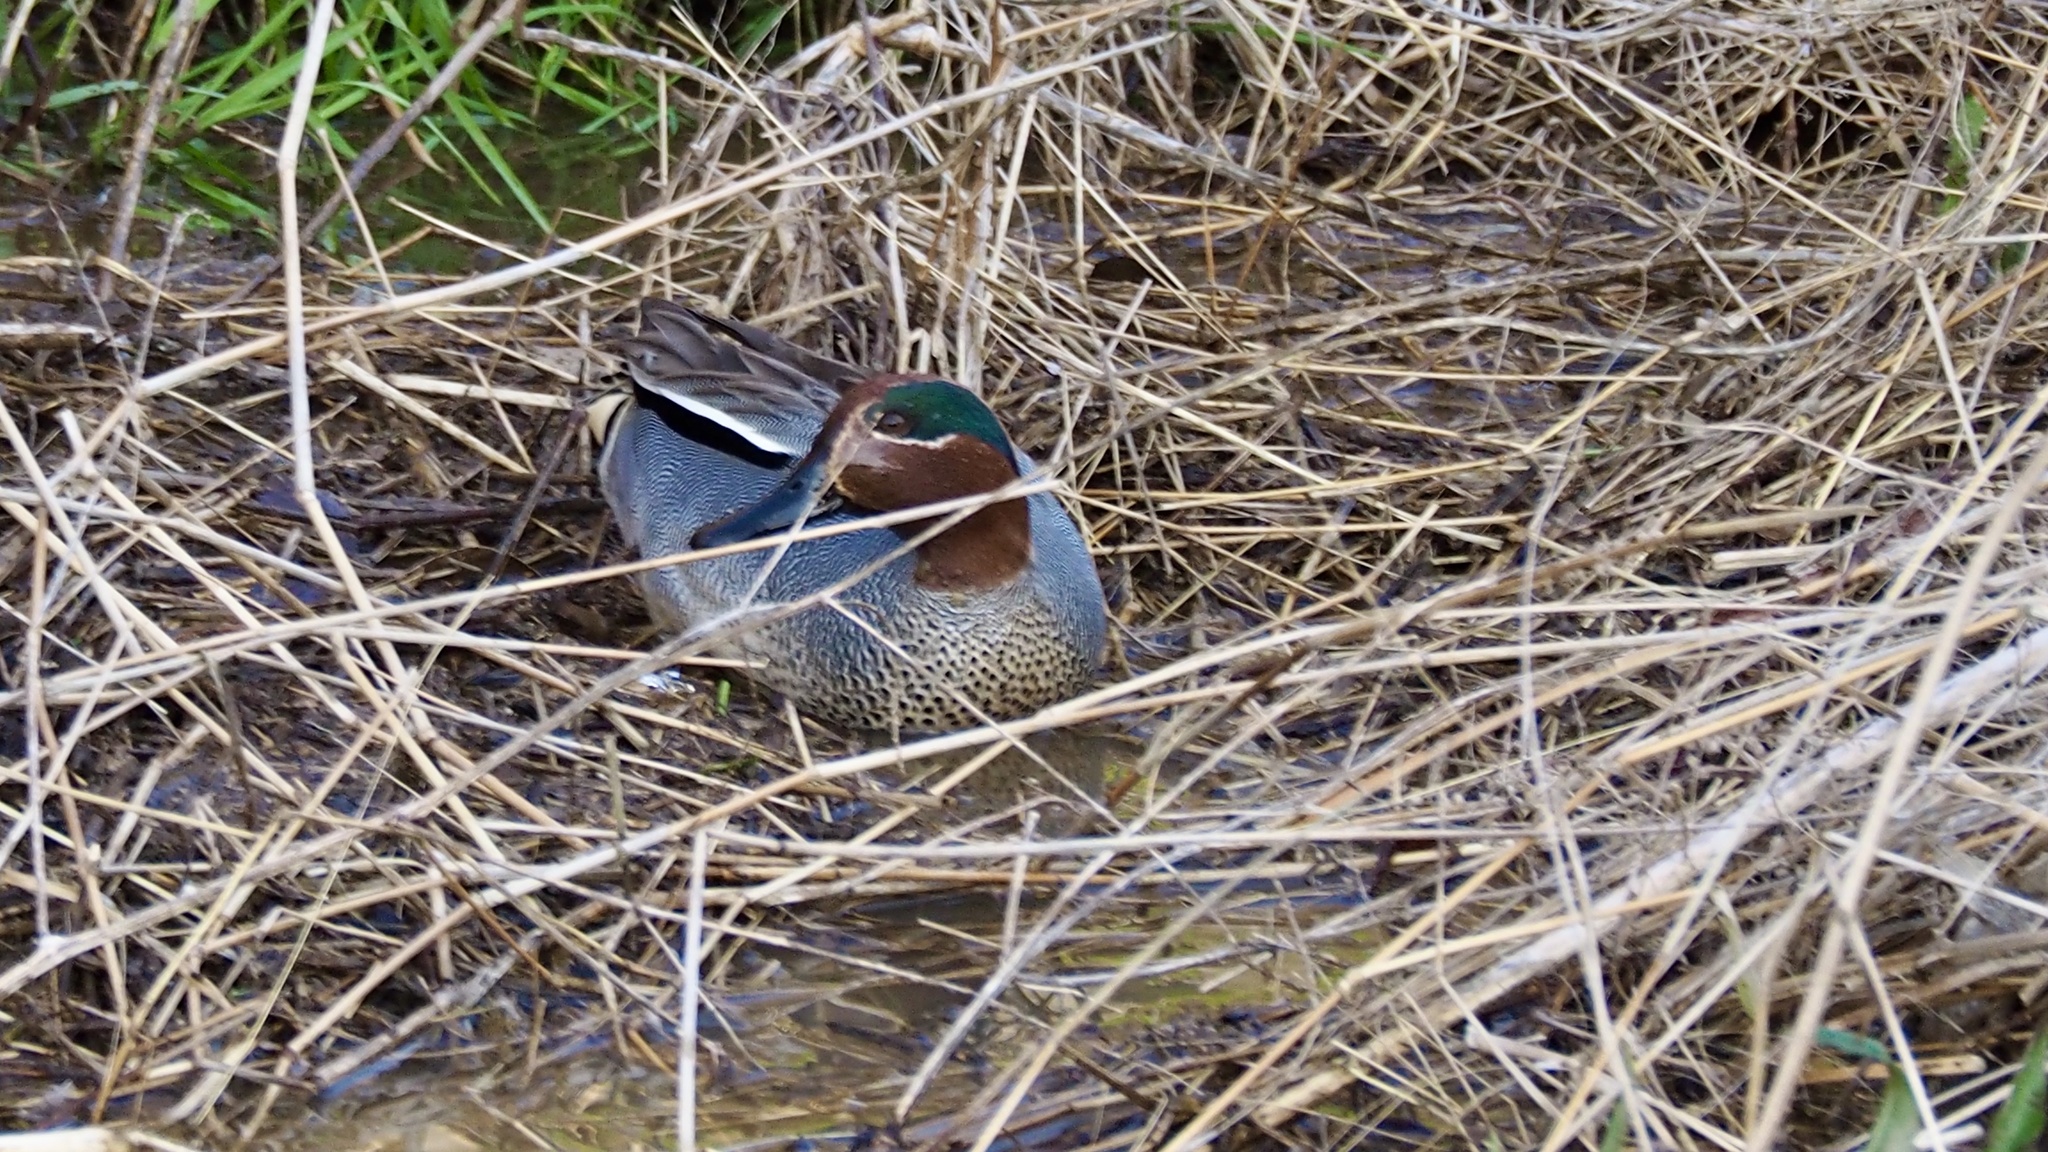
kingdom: Animalia
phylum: Chordata
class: Aves
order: Anseriformes
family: Anatidae
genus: Anas
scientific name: Anas crecca
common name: Eurasian teal
